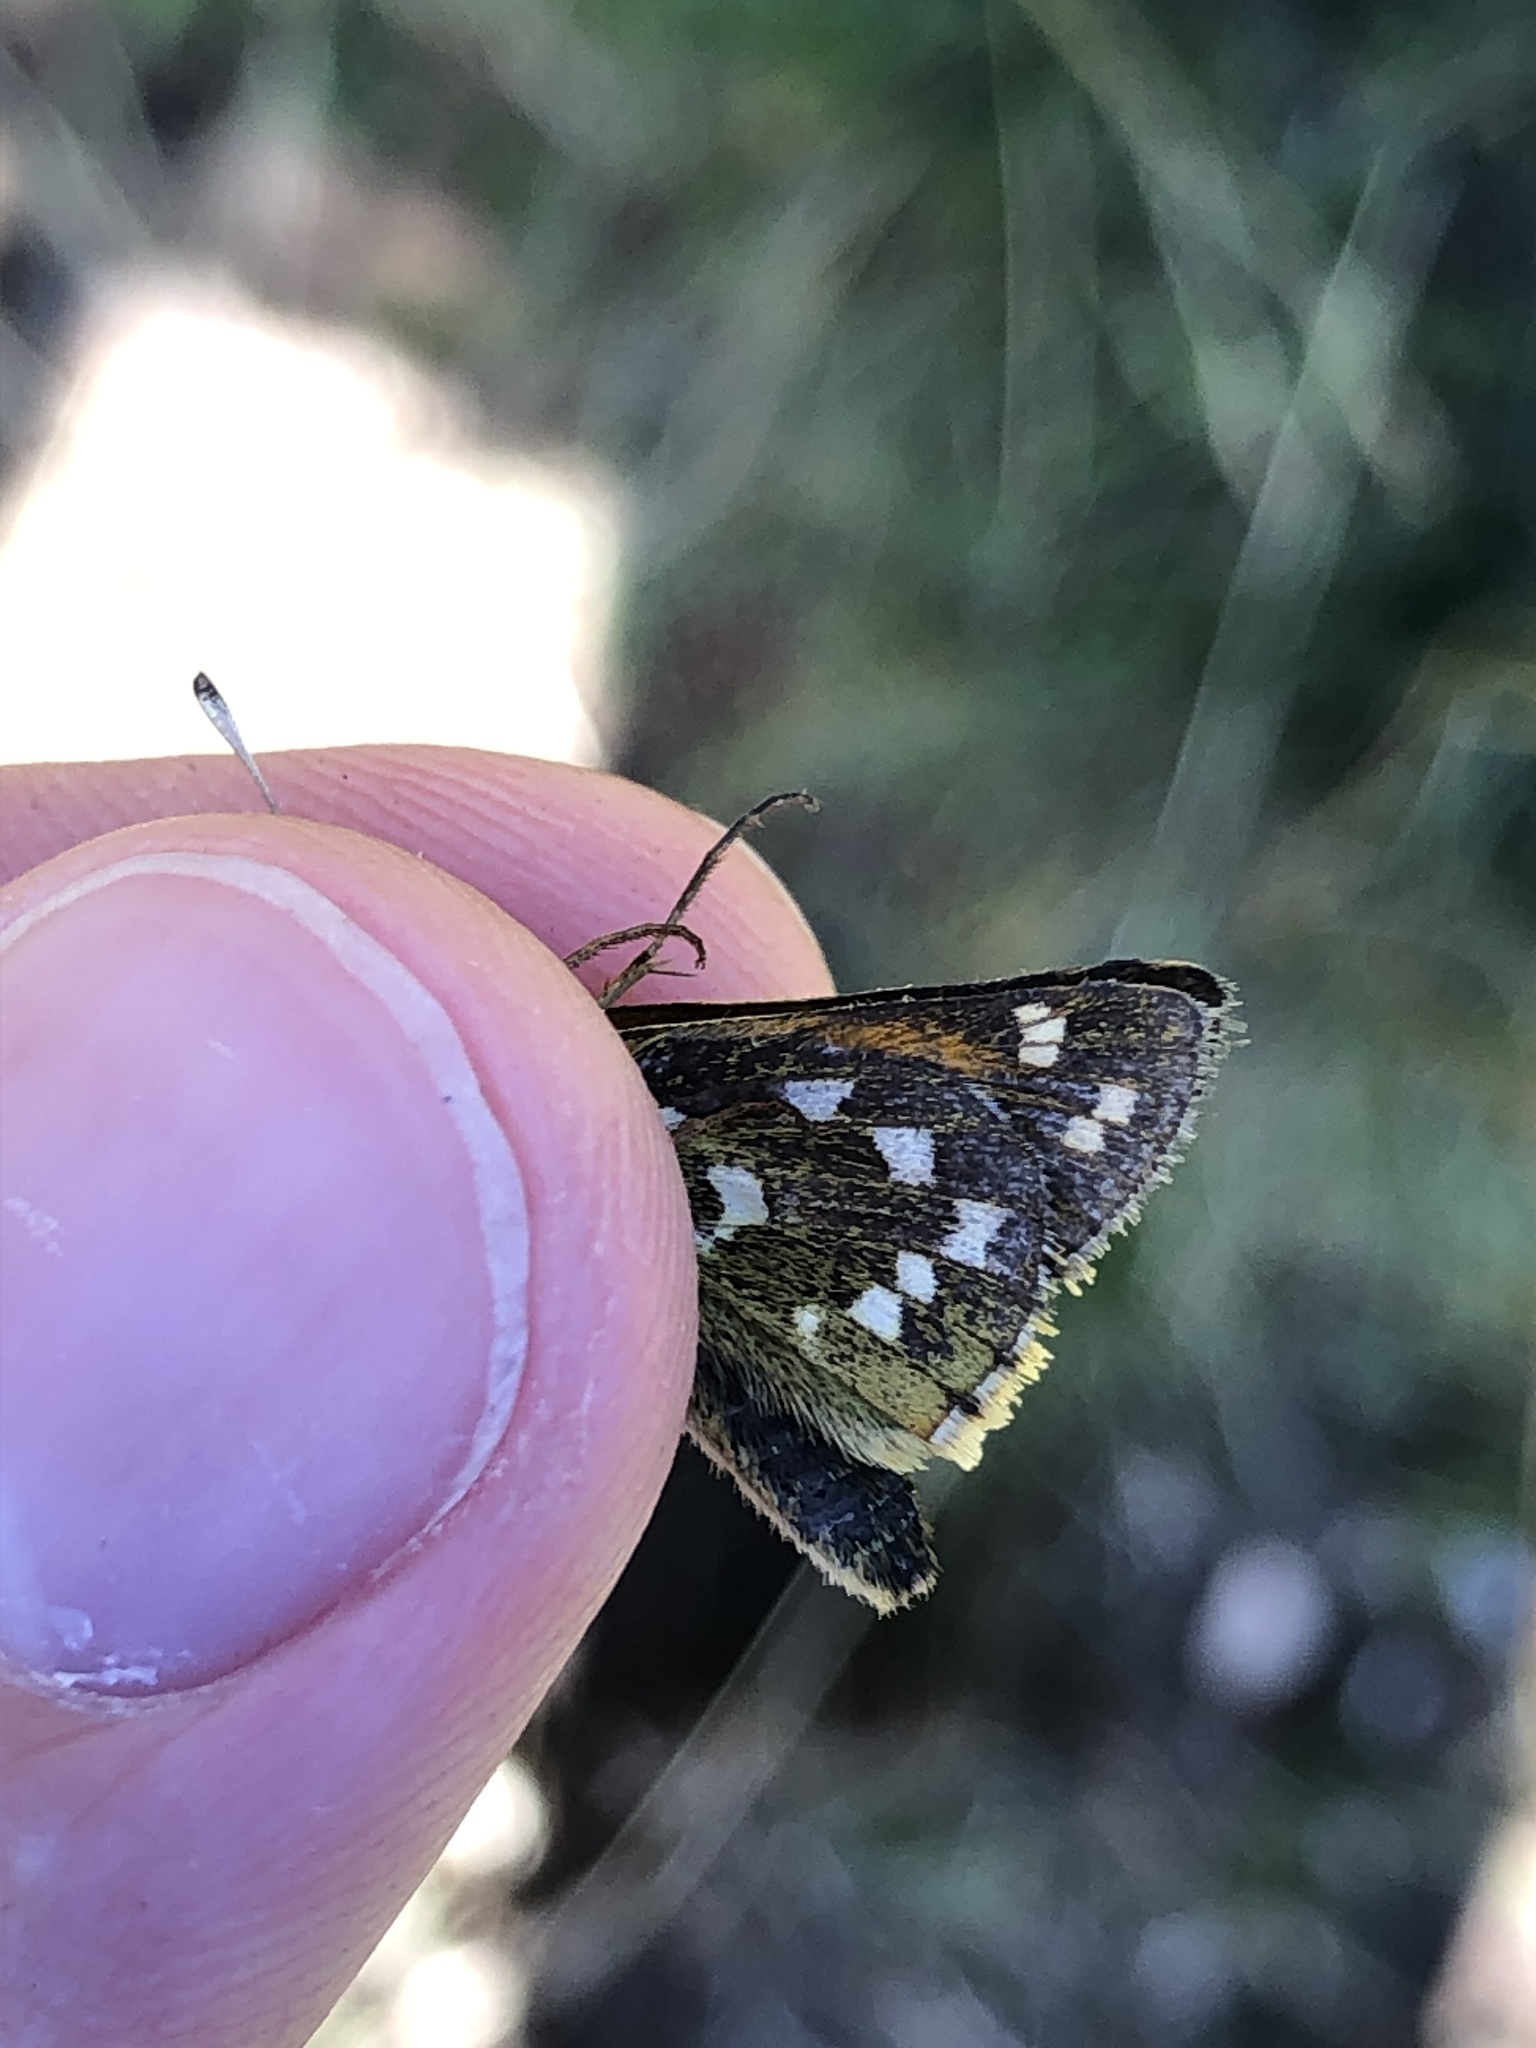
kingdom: Animalia
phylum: Arthropoda
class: Insecta
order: Lepidoptera
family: Hesperiidae
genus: Hesperia
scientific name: Hesperia comma
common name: Common branded skipper
